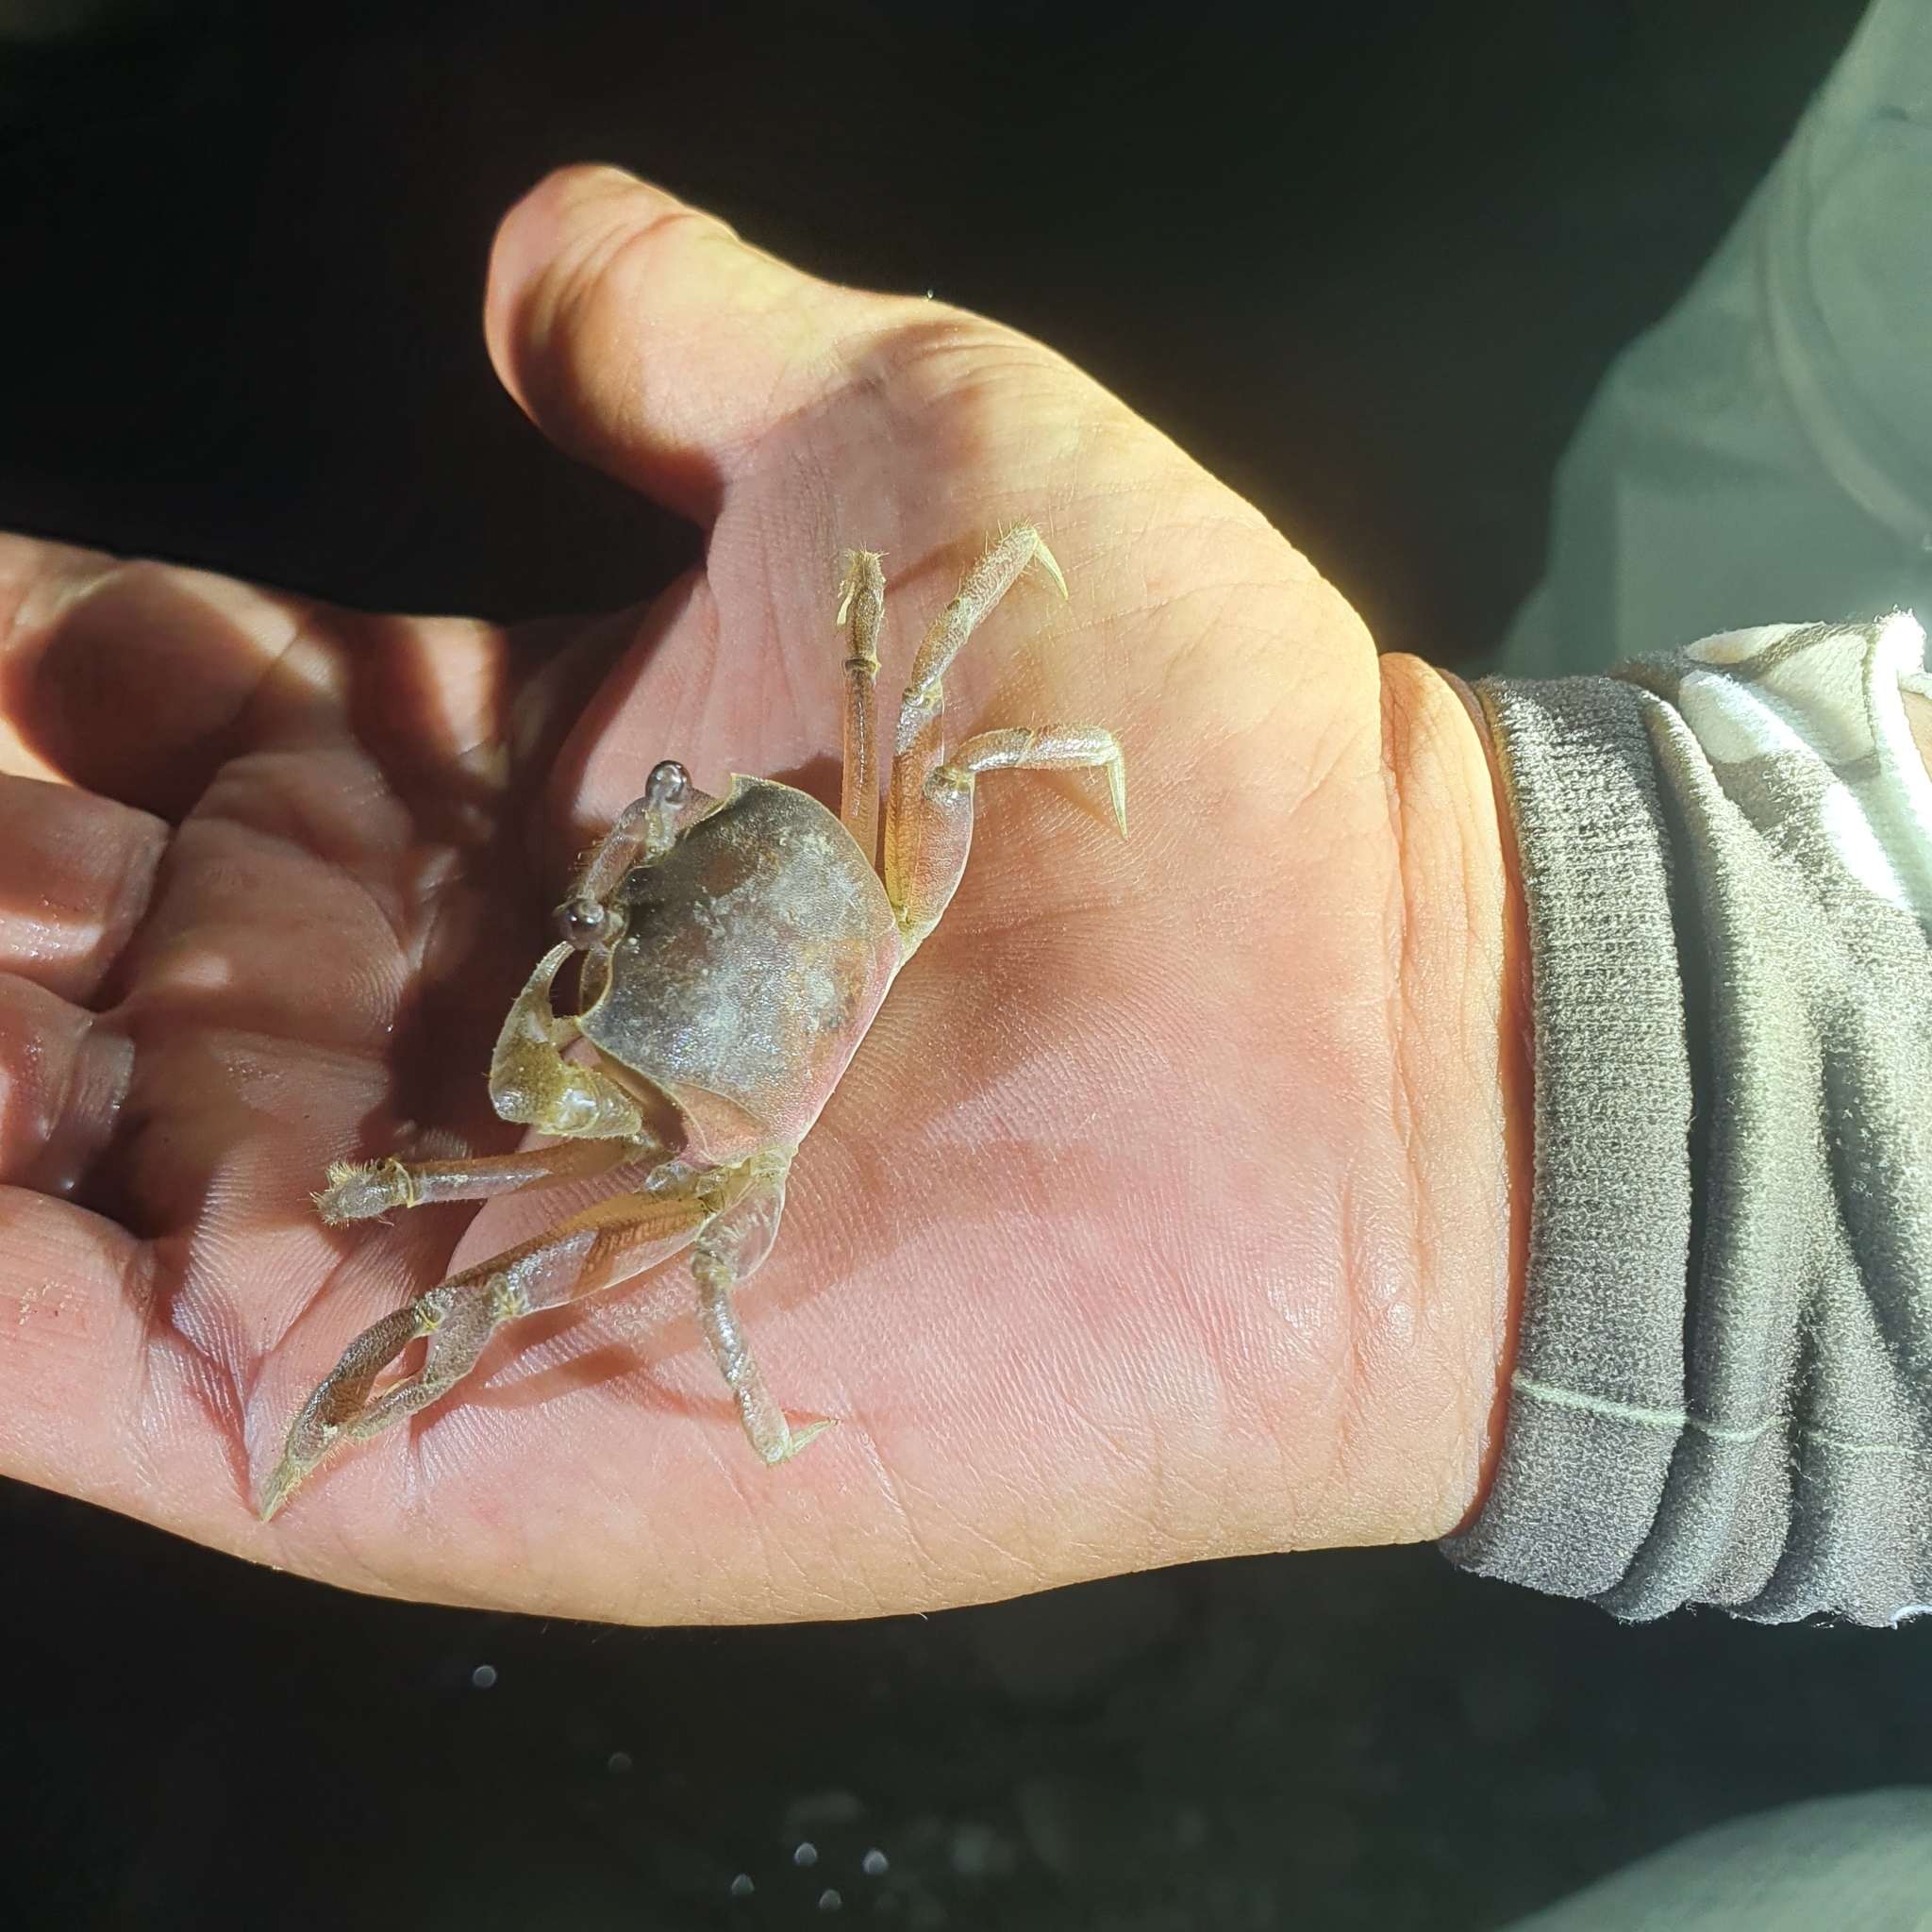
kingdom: Animalia
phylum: Arthropoda
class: Malacostraca
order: Decapoda
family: Ocypodidae
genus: Ocypode
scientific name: Ocypode sinensis
